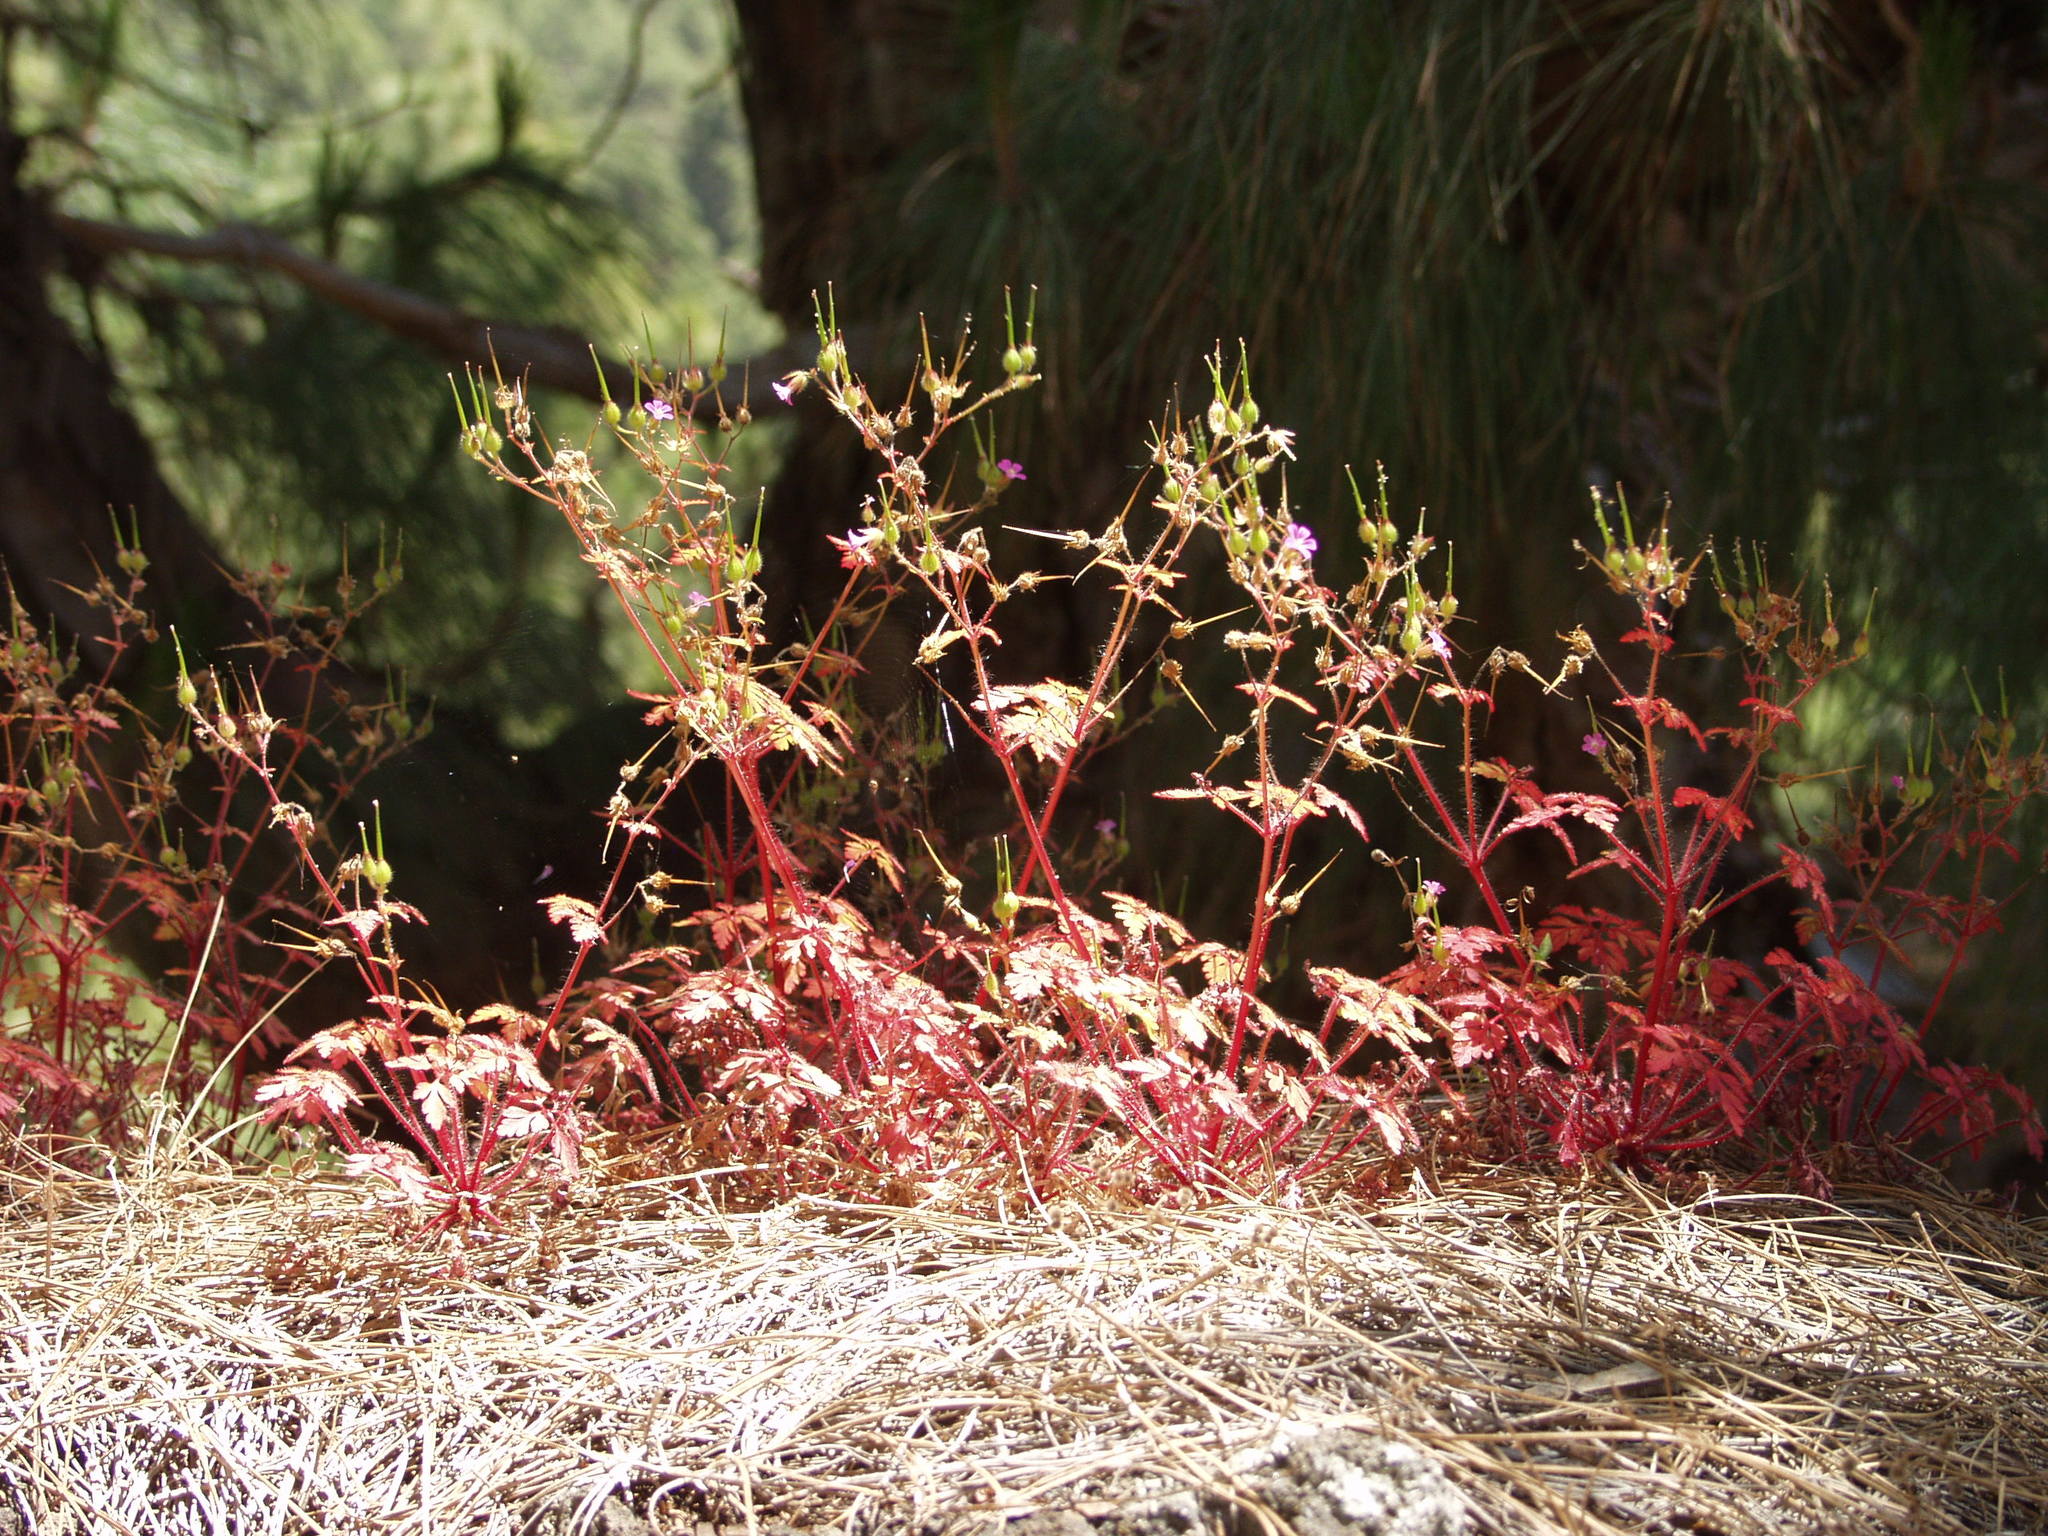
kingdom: Plantae
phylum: Tracheophyta
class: Magnoliopsida
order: Geraniales
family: Geraniaceae
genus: Geranium
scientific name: Geranium purpureum
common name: Little-robin
